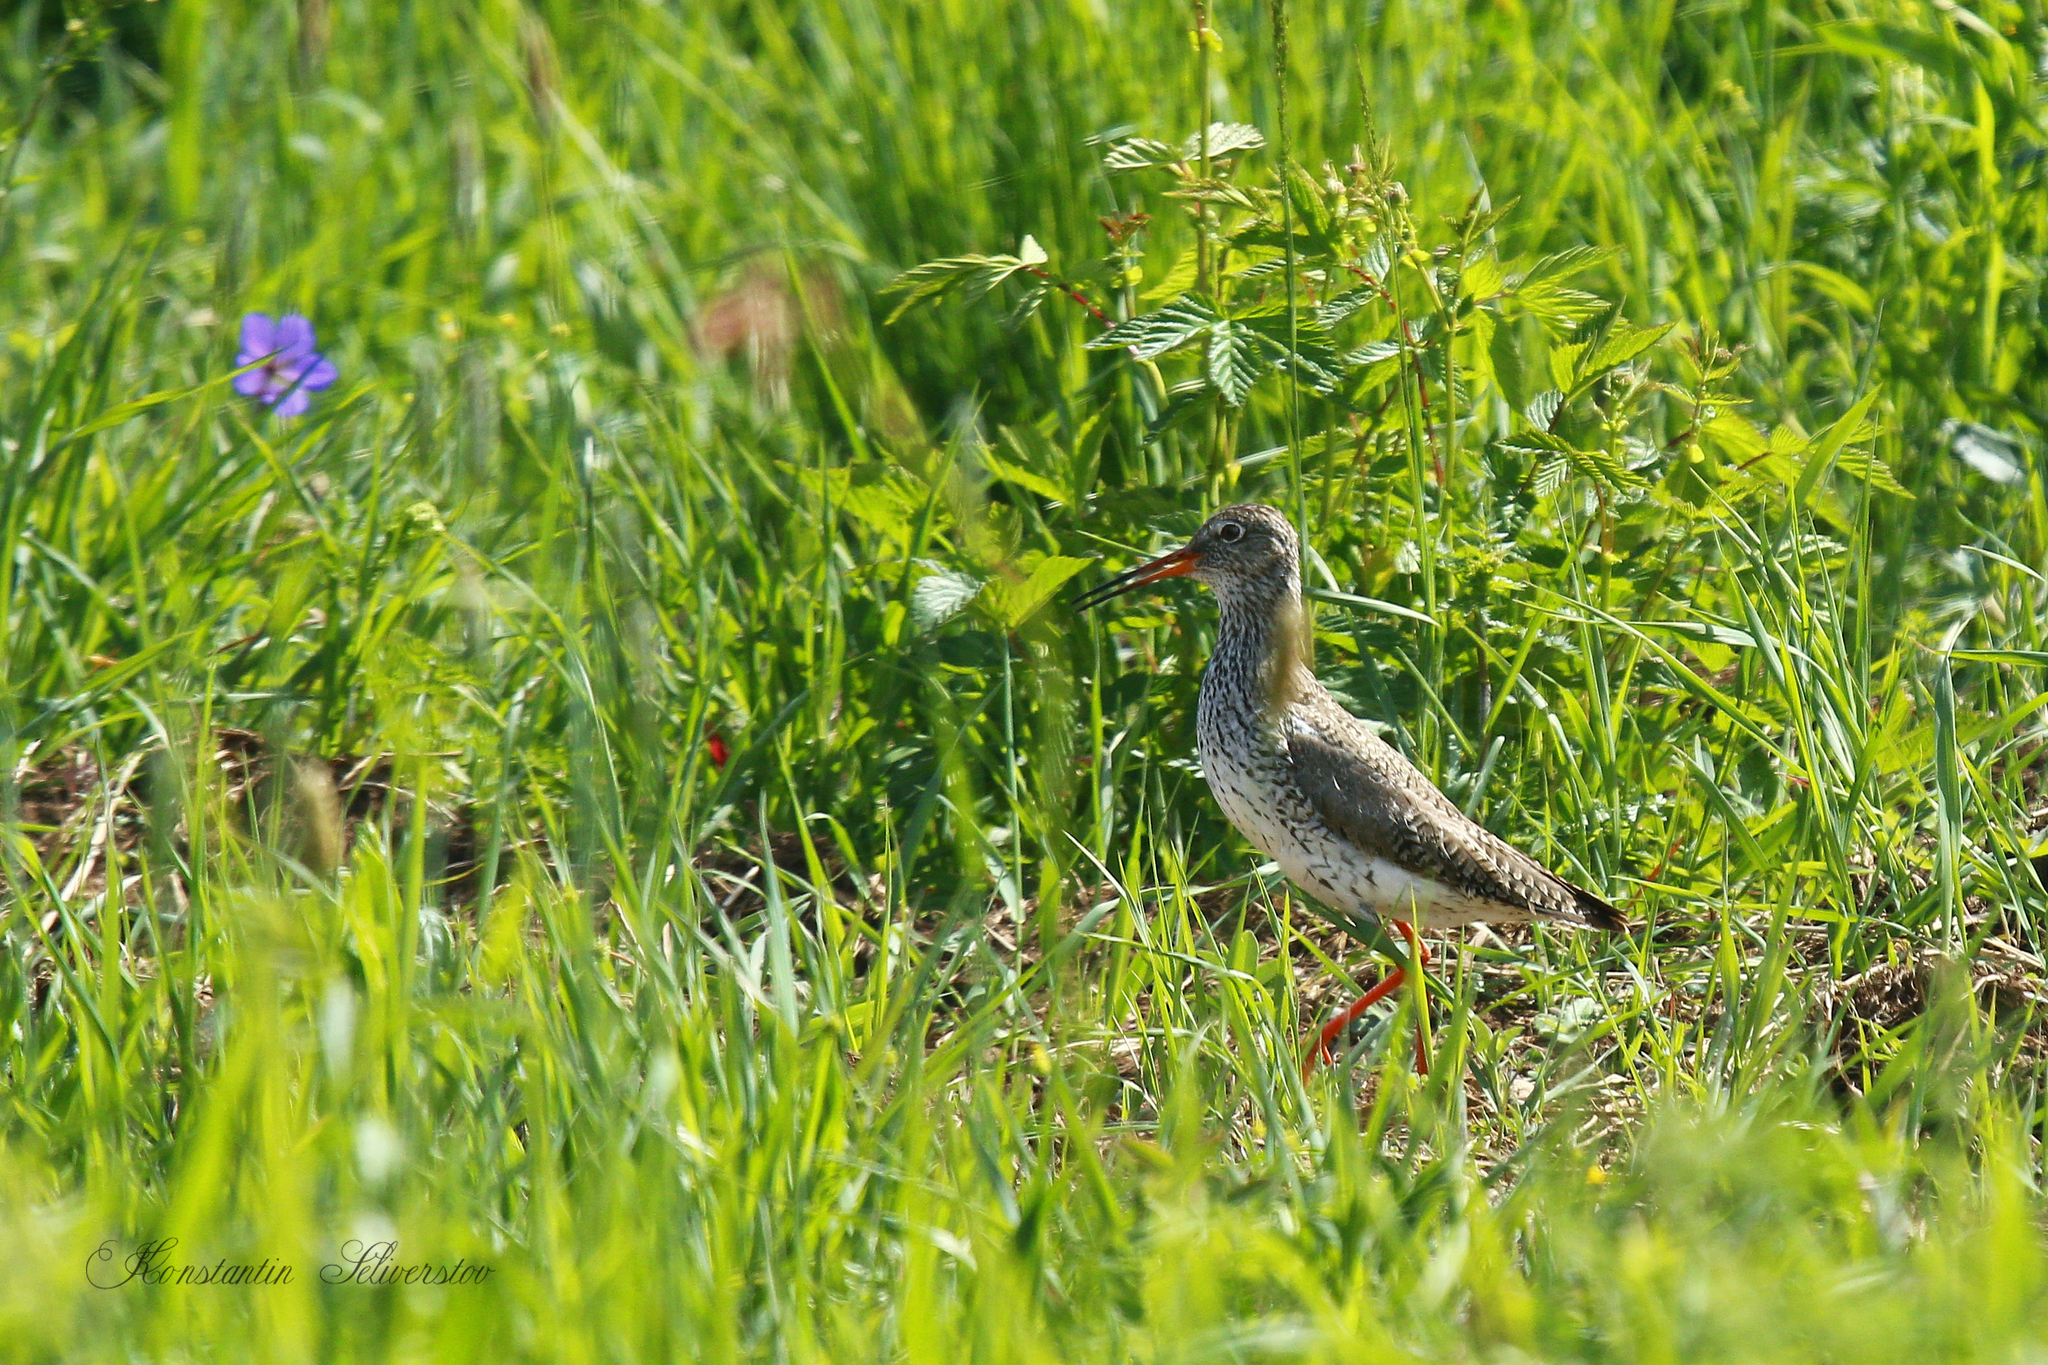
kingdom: Animalia
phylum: Chordata
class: Aves
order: Charadriiformes
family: Scolopacidae
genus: Tringa
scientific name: Tringa totanus
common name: Common redshank
